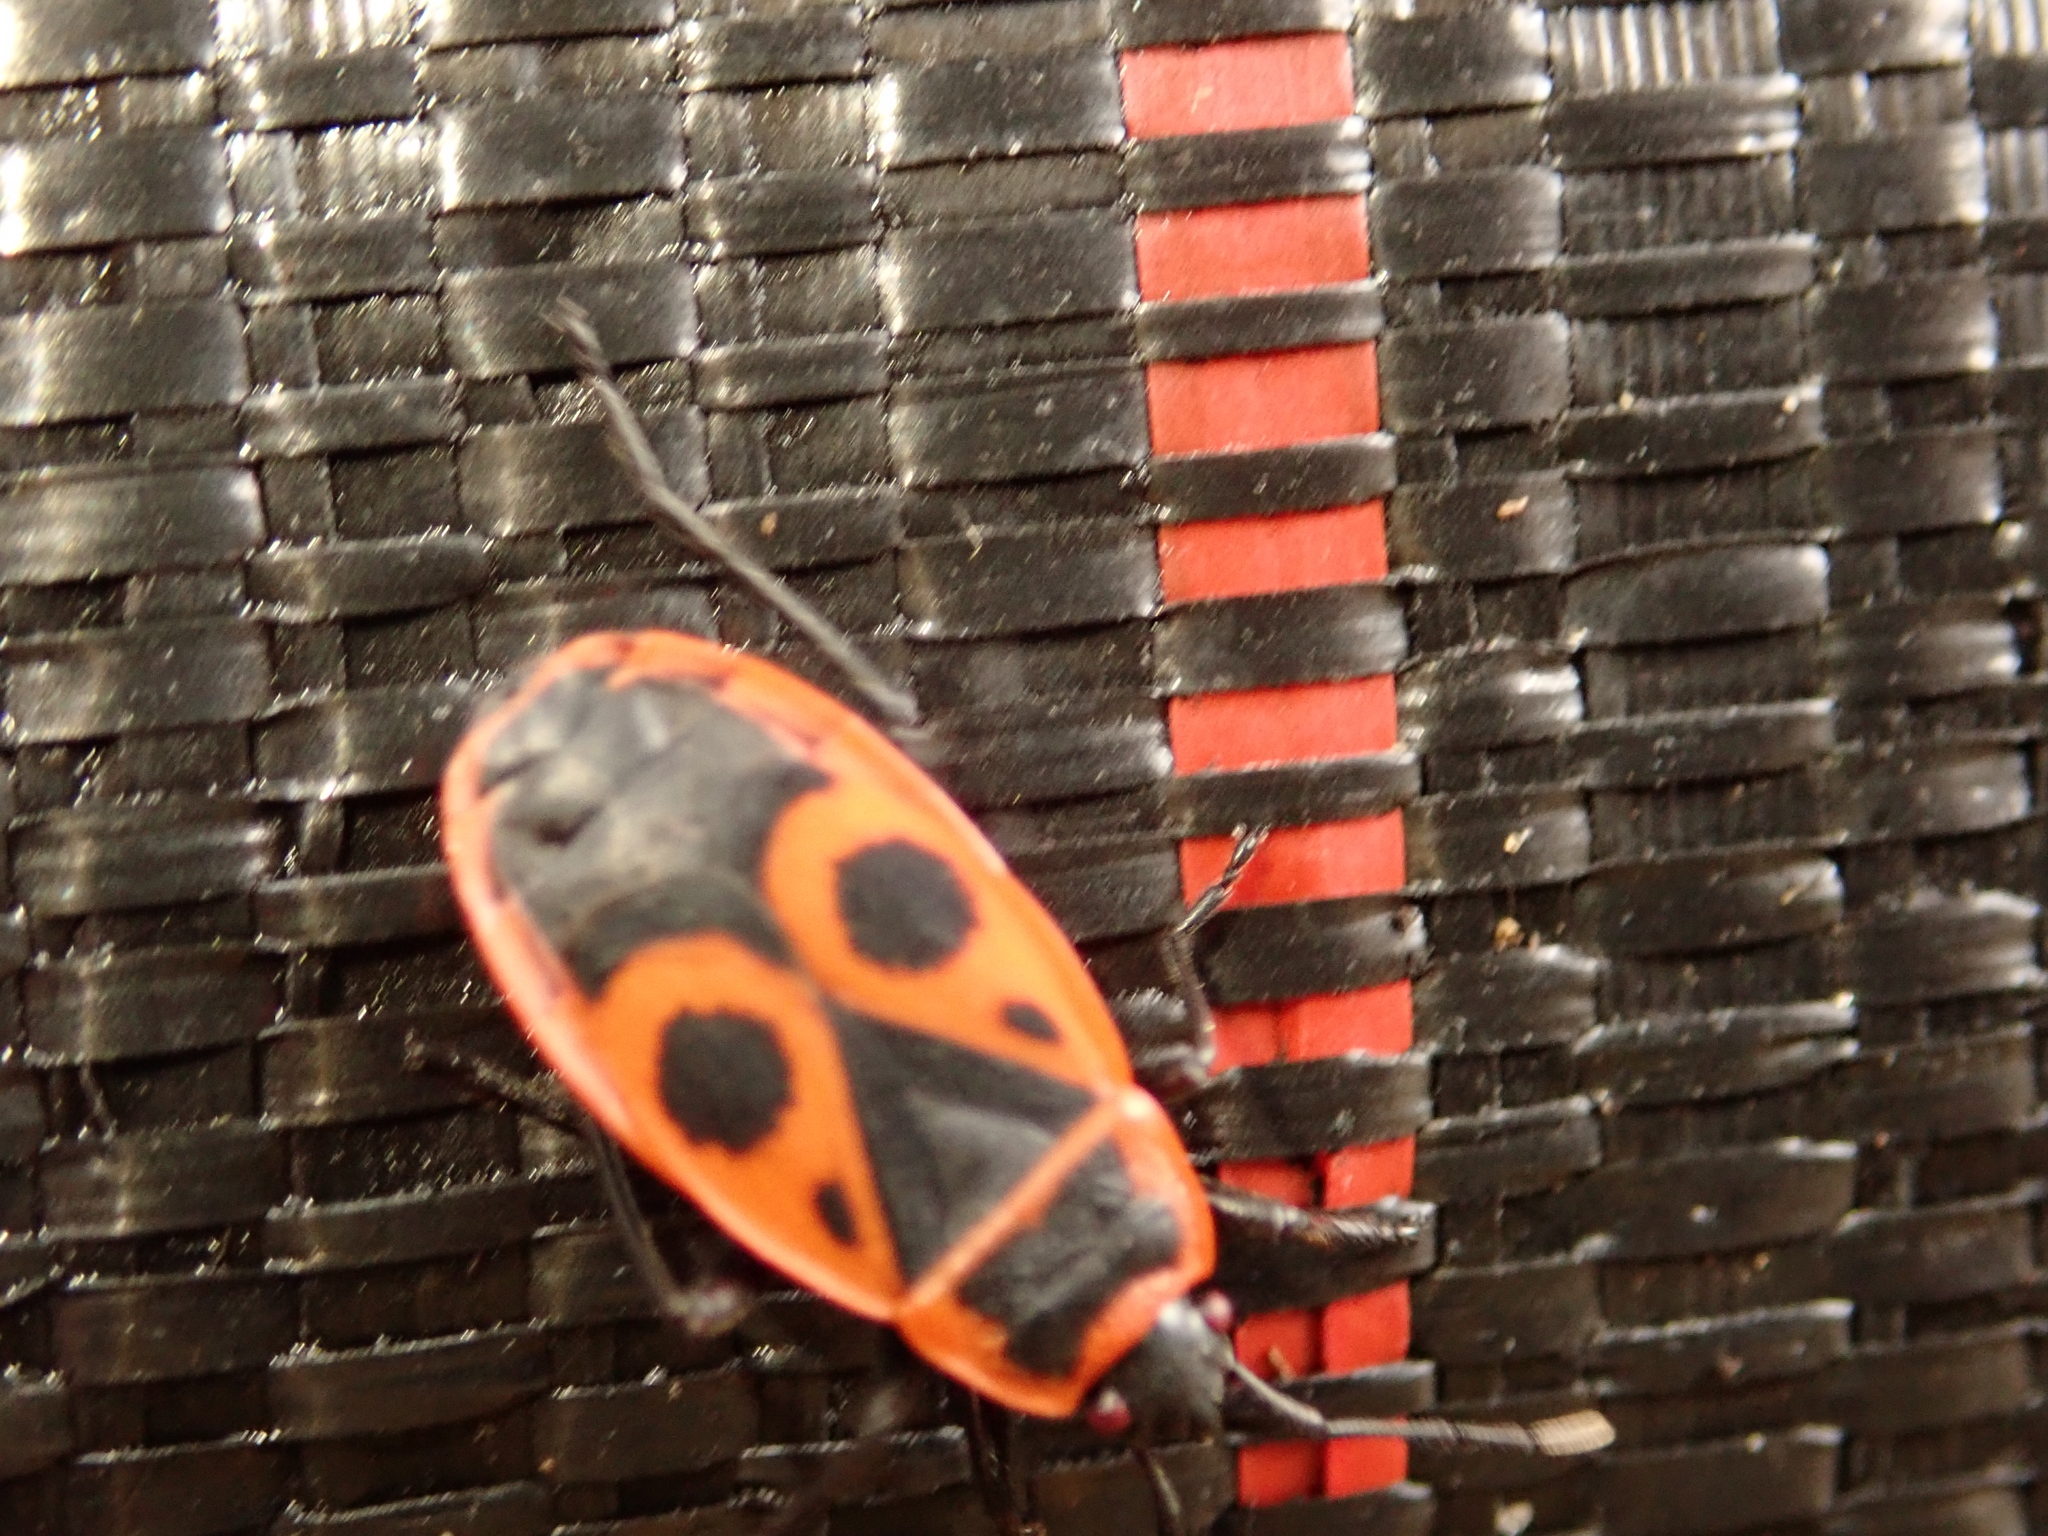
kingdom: Animalia
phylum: Arthropoda
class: Insecta
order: Hemiptera
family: Pyrrhocoridae
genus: Pyrrhocoris
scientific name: Pyrrhocoris apterus
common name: Firebug
